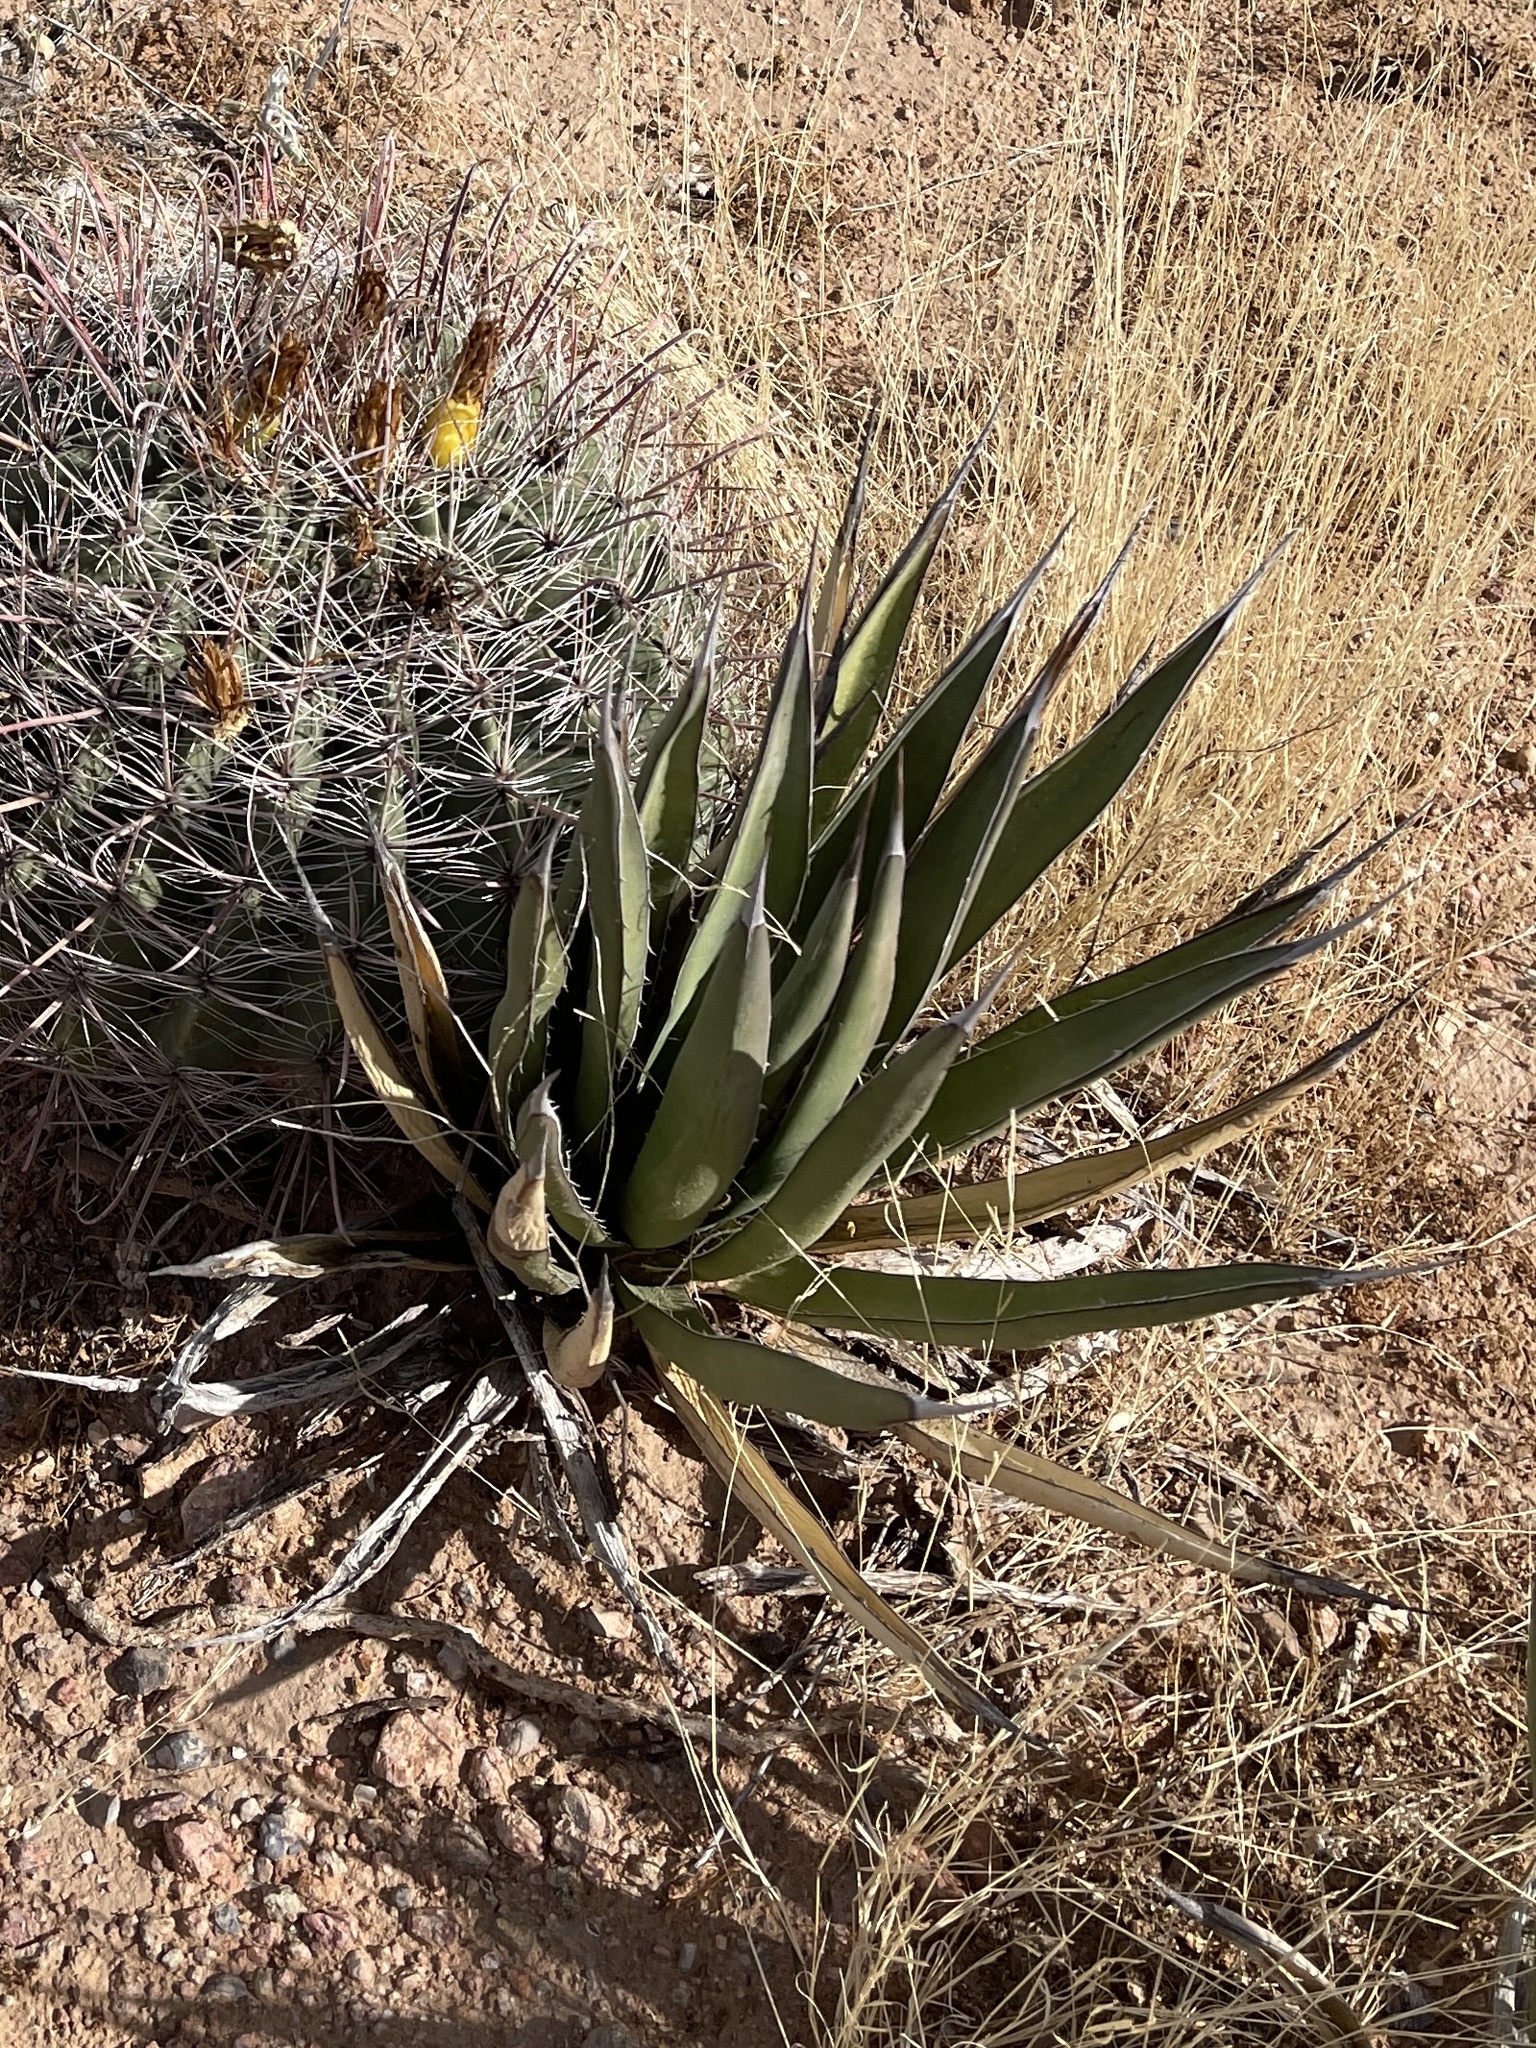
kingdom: Plantae
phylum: Tracheophyta
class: Liliopsida
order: Asparagales
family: Asparagaceae
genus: Agave
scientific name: Agave lechuguilla
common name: Lecheguilla agave
